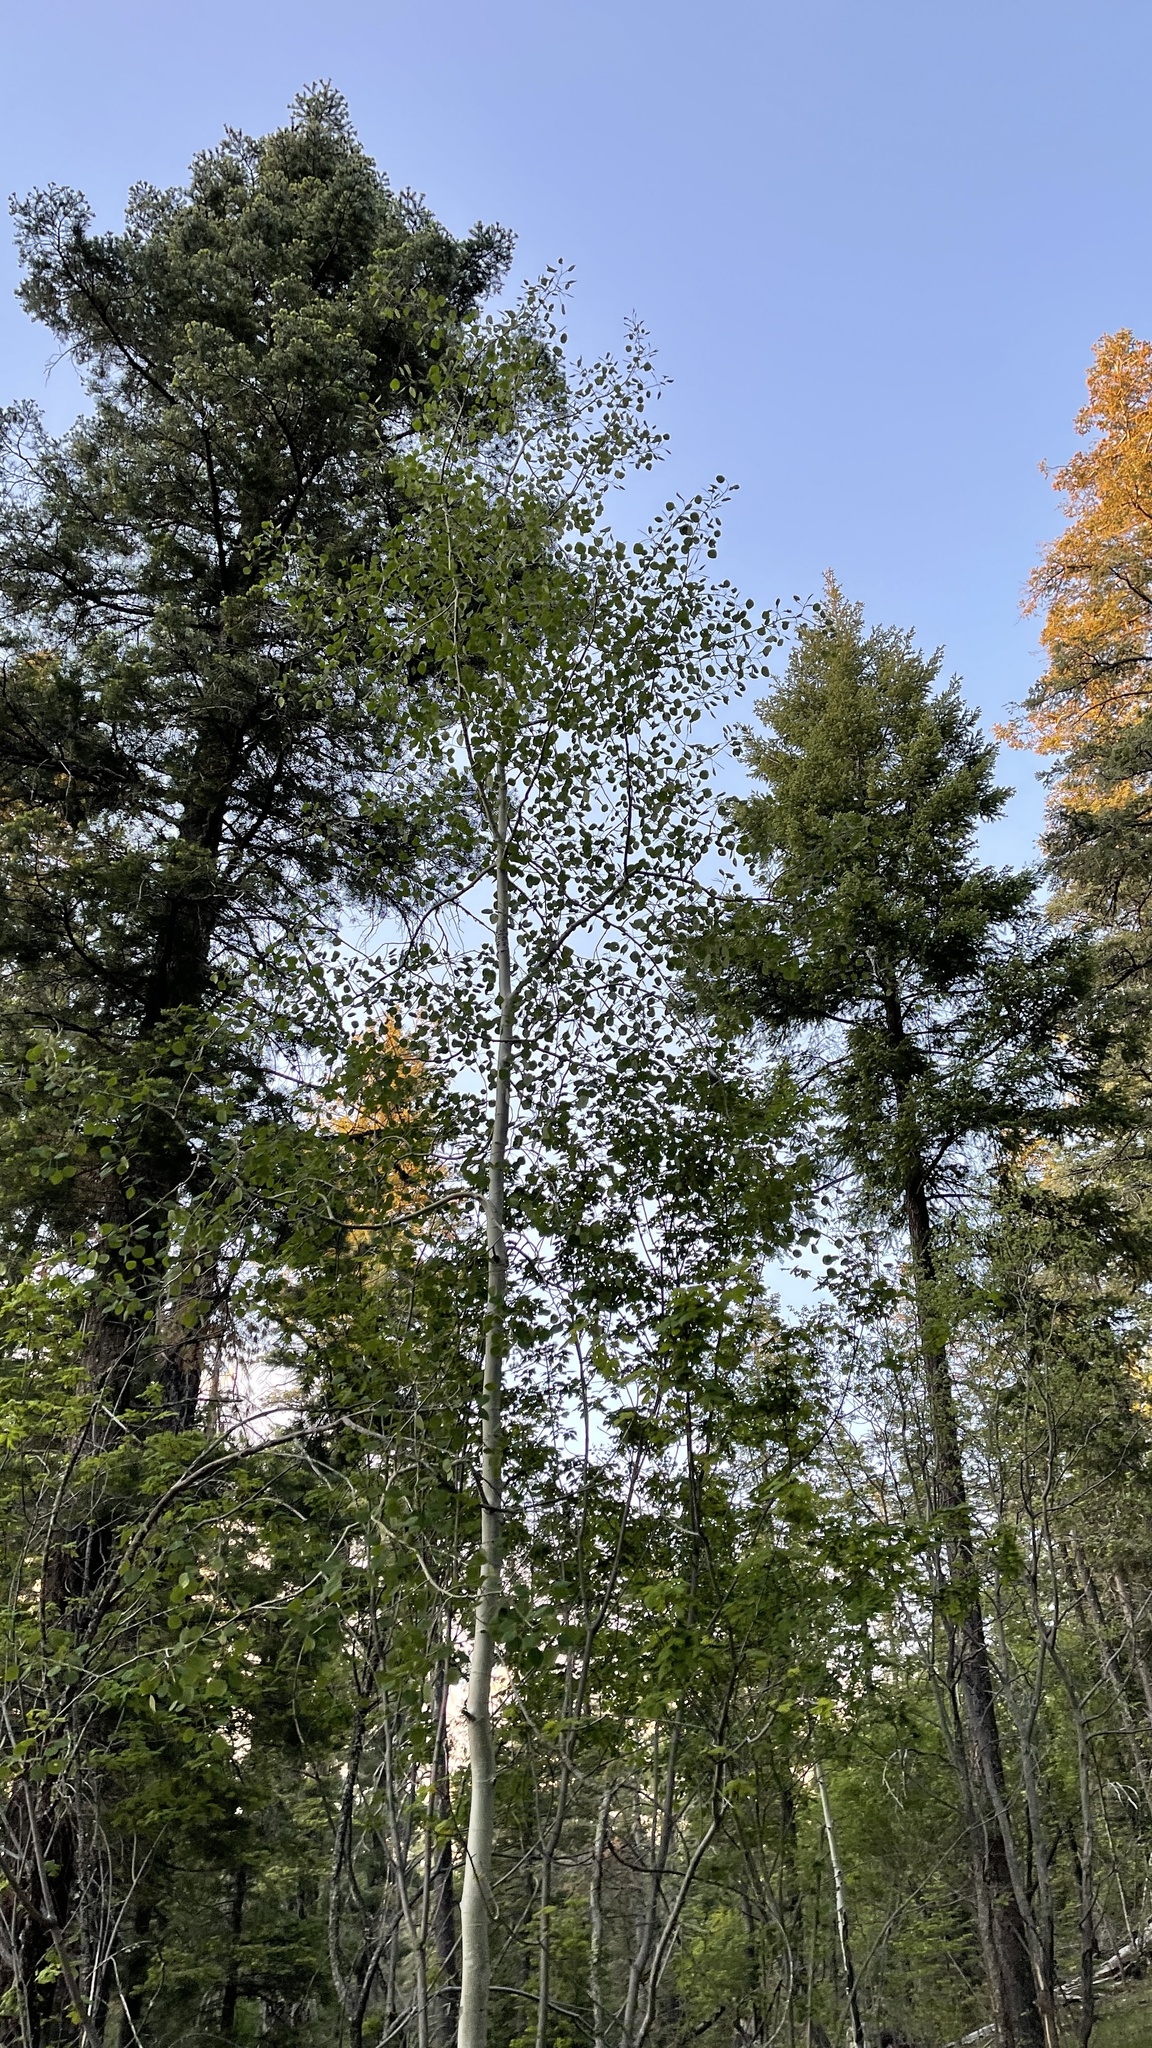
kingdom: Plantae
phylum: Tracheophyta
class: Magnoliopsida
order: Malpighiales
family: Salicaceae
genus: Populus
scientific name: Populus tremuloides
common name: Quaking aspen
